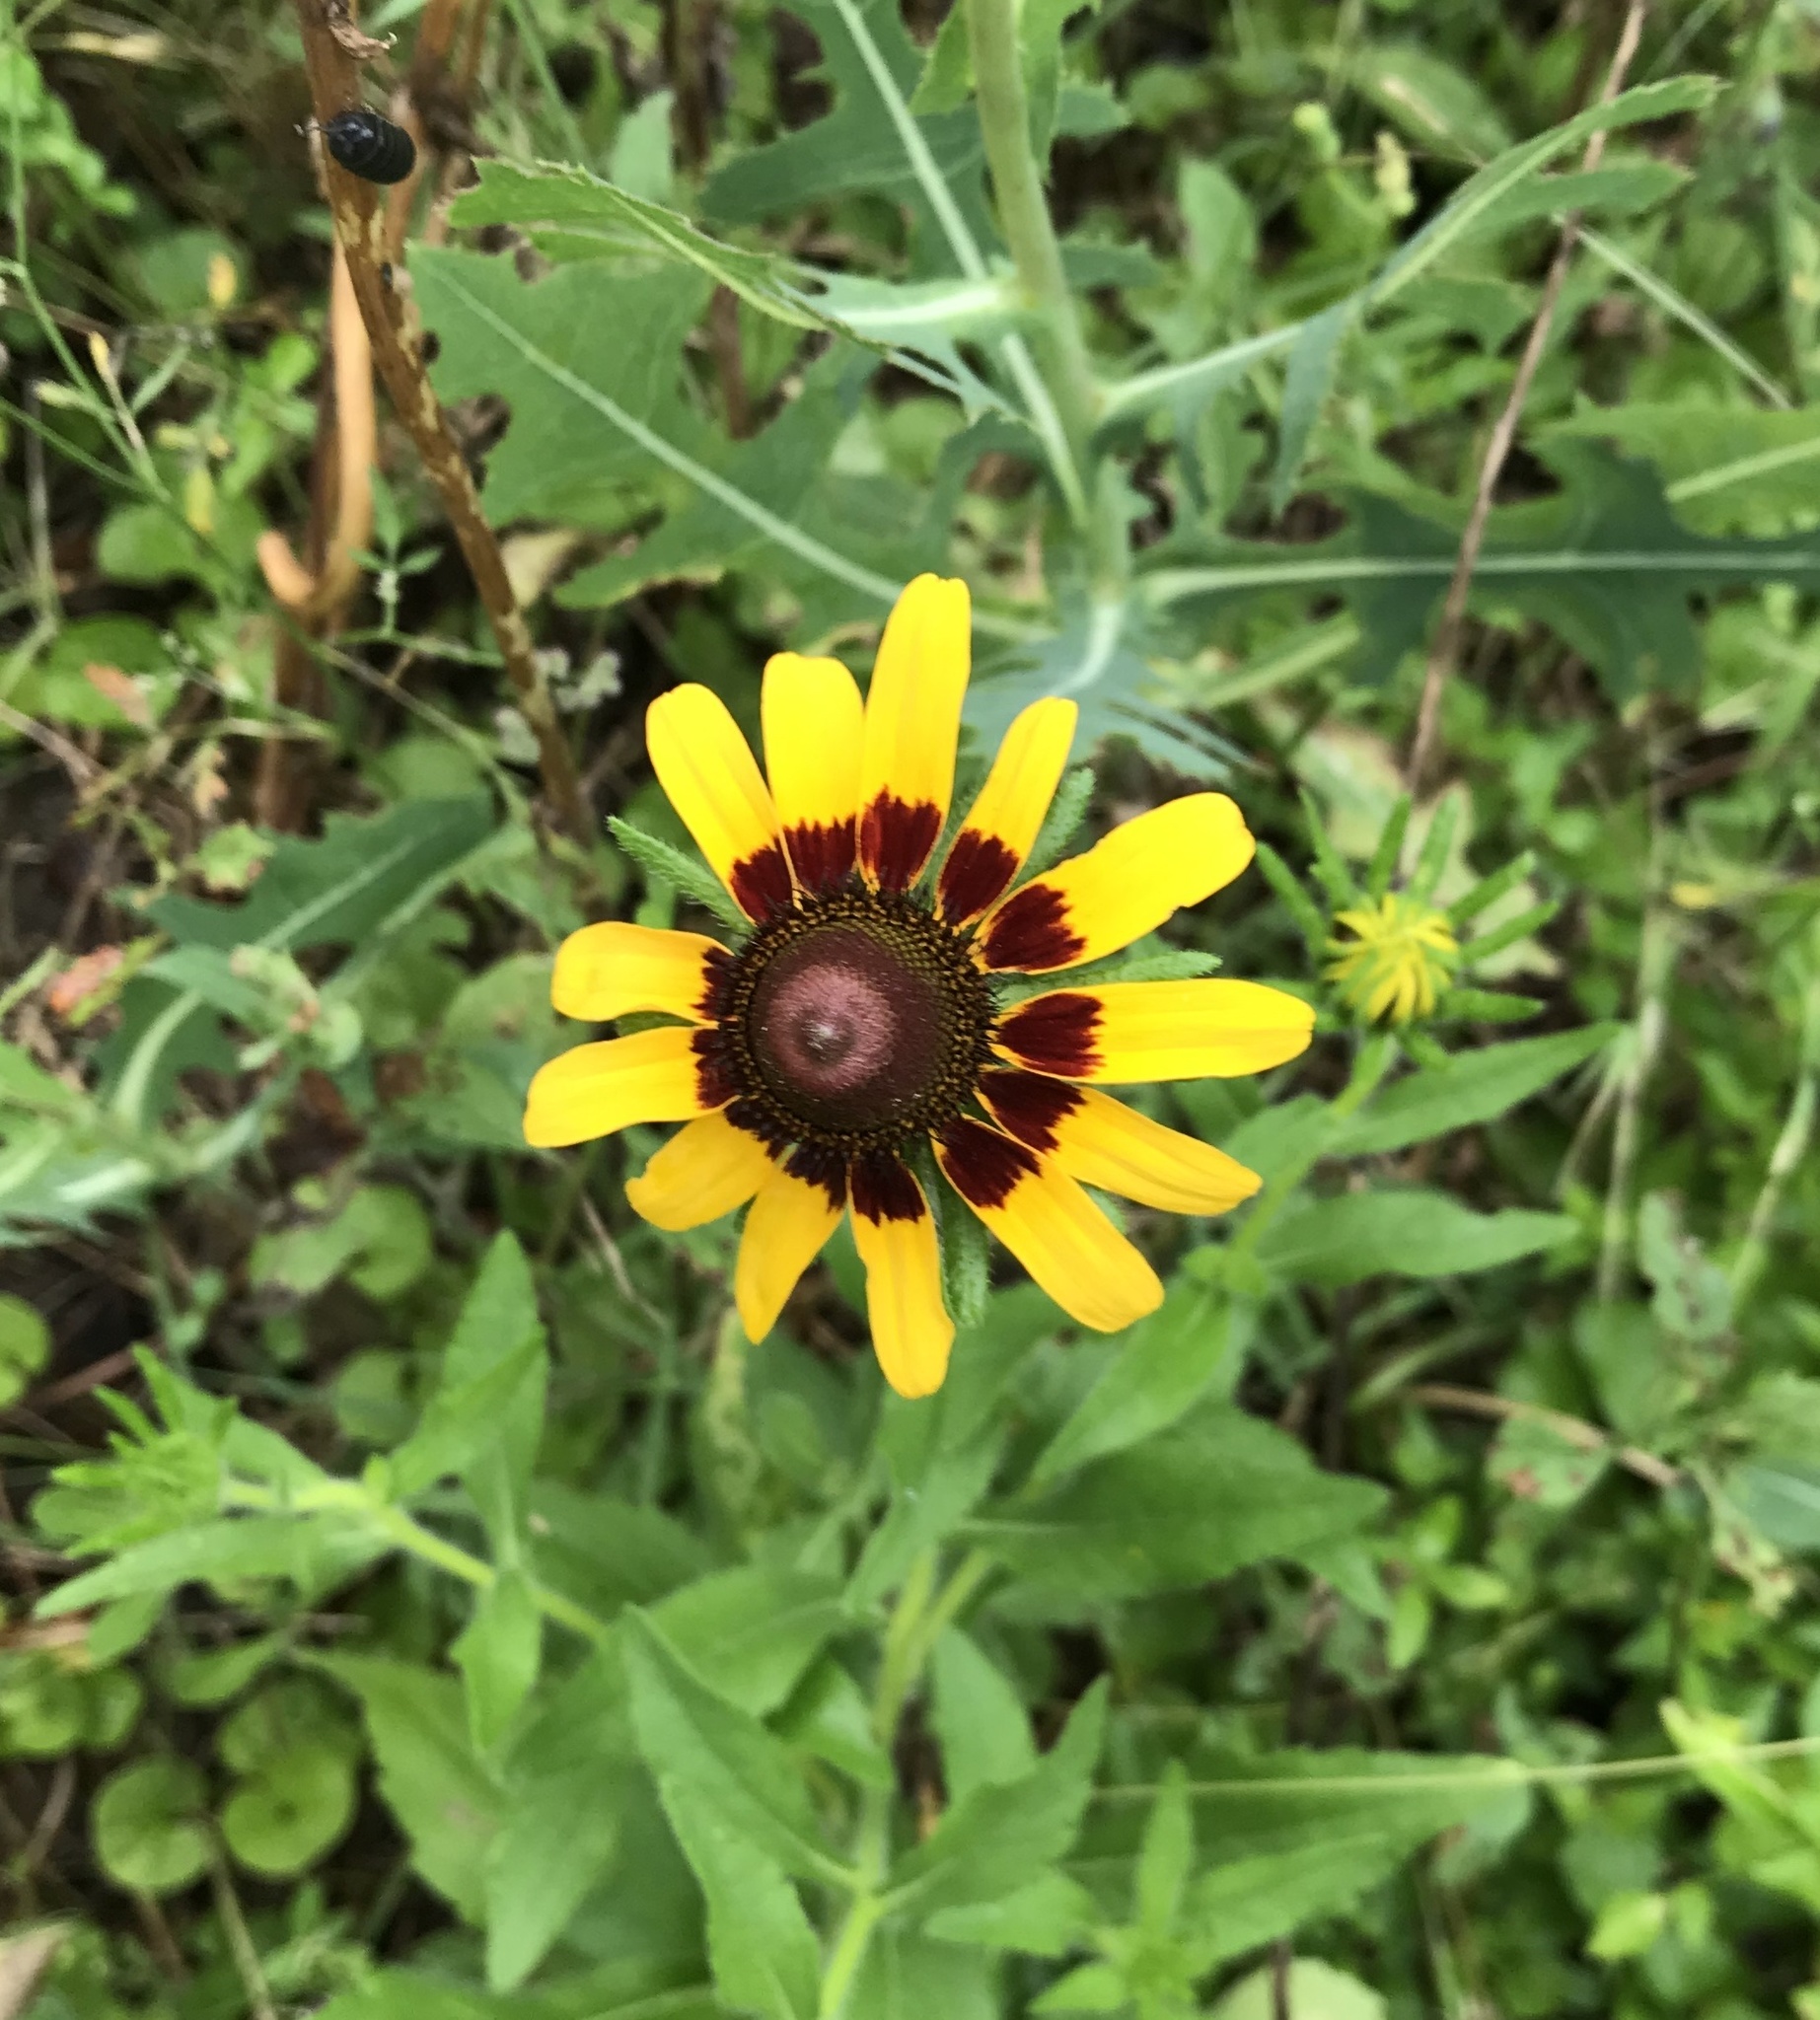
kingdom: Plantae
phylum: Tracheophyta
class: Magnoliopsida
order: Asterales
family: Asteraceae
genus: Rudbeckia
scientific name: Rudbeckia hirta
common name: Black-eyed-susan
